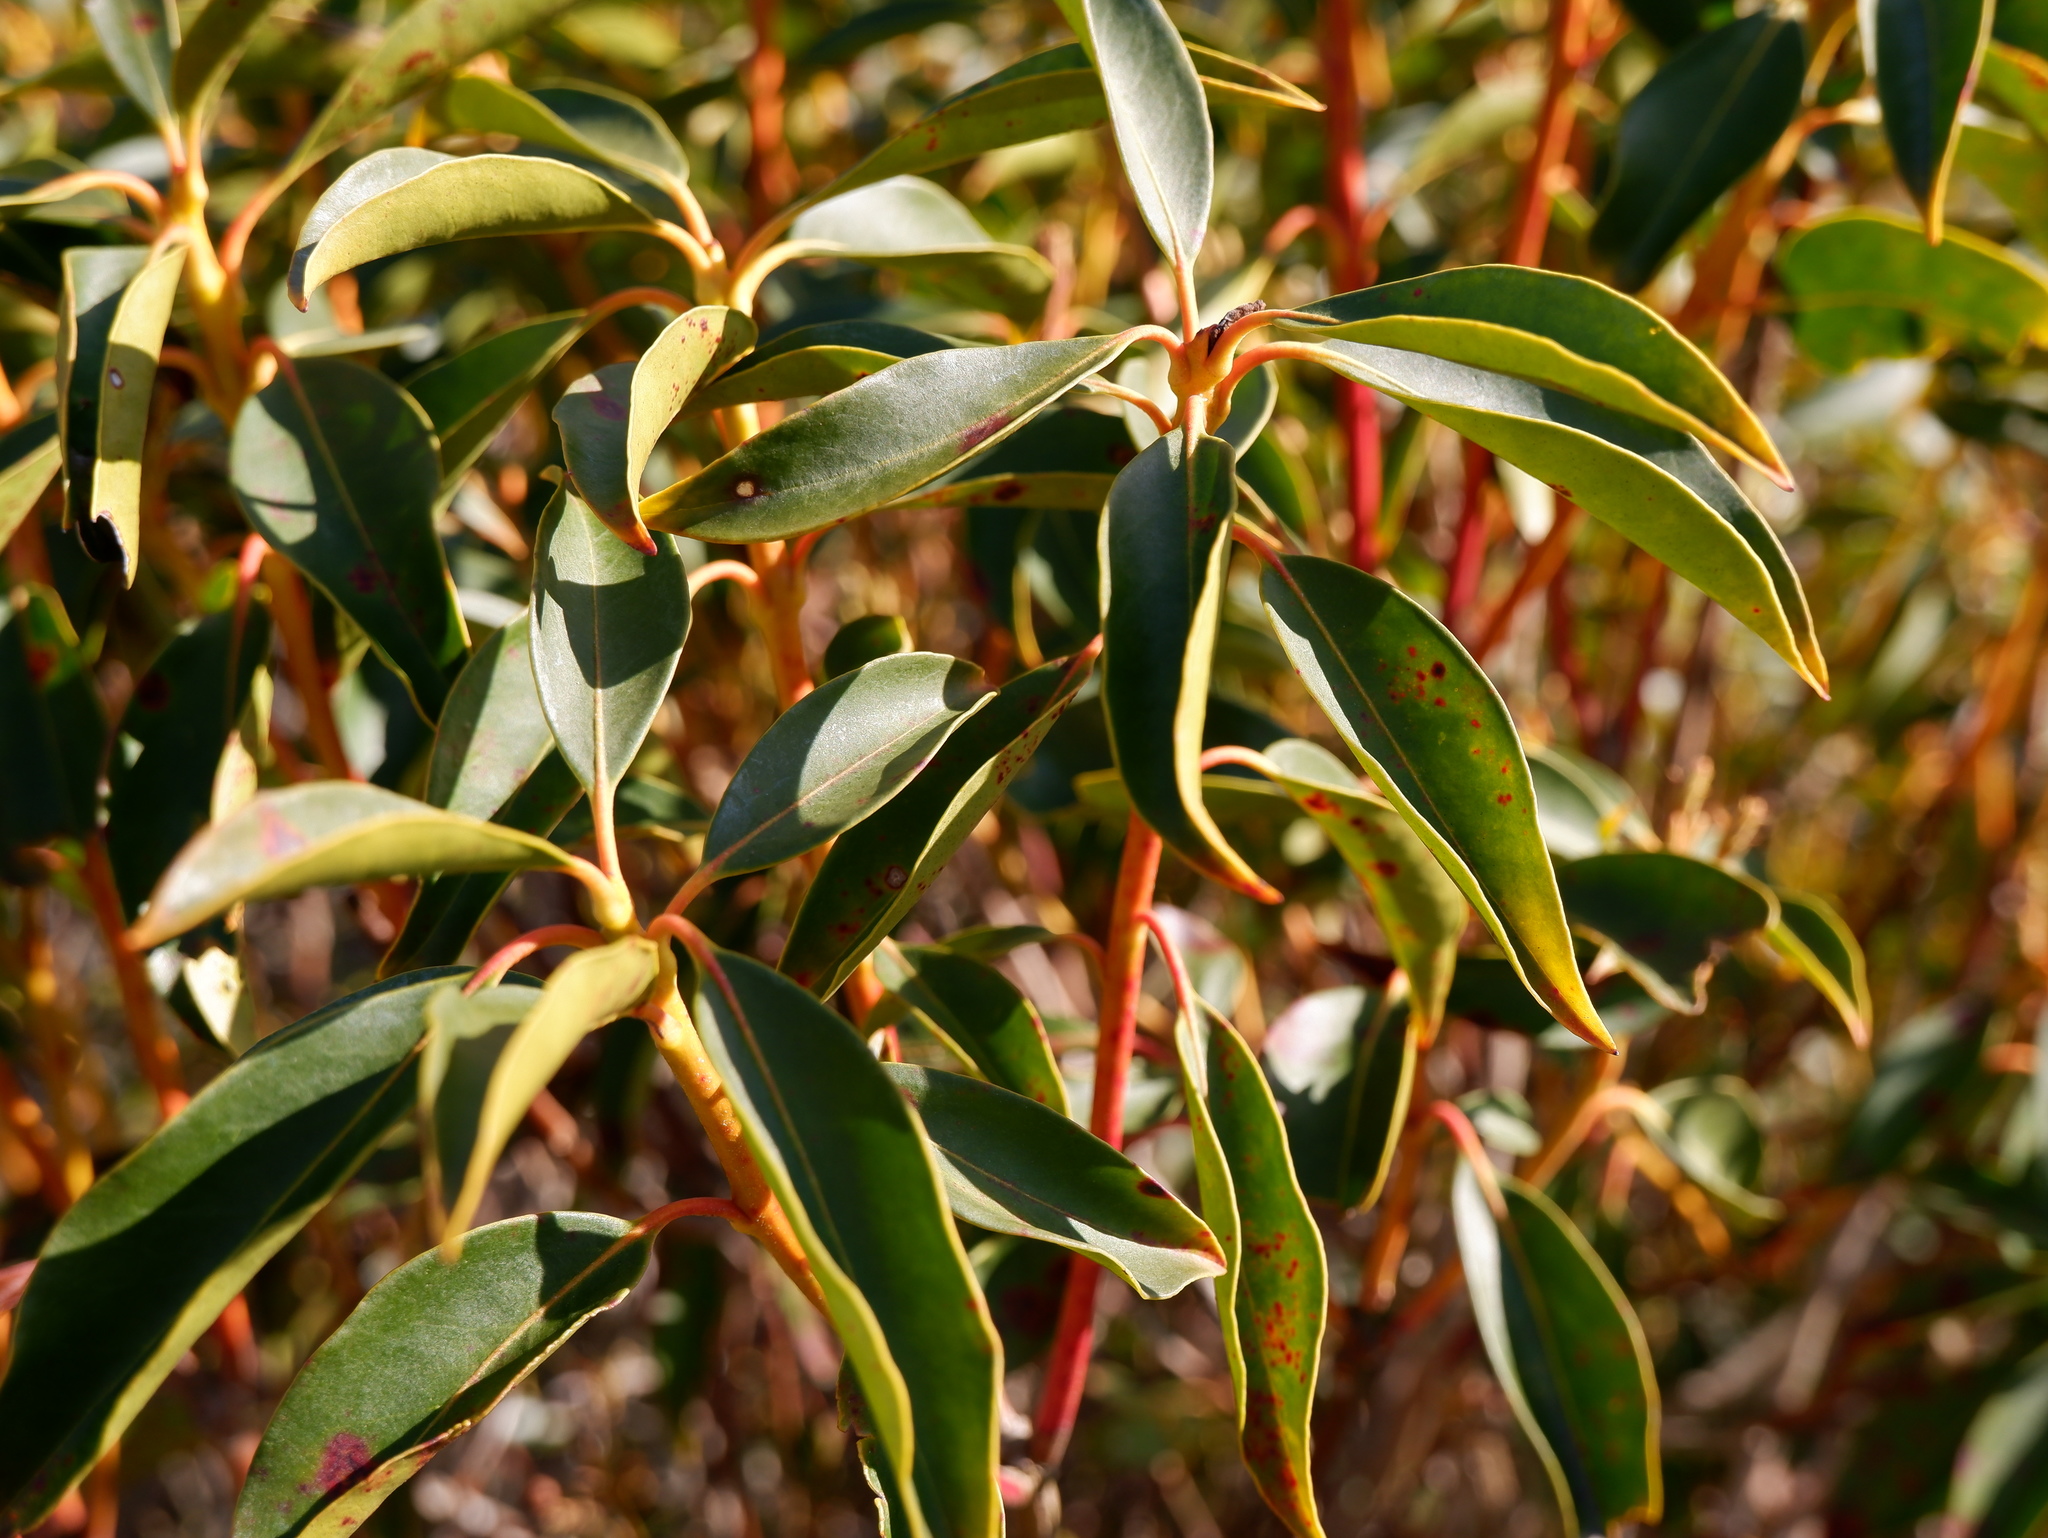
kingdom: Plantae
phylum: Tracheophyta
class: Magnoliopsida
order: Ericales
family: Ericaceae
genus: Kalmia
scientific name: Kalmia latifolia
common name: Mountain-laurel
